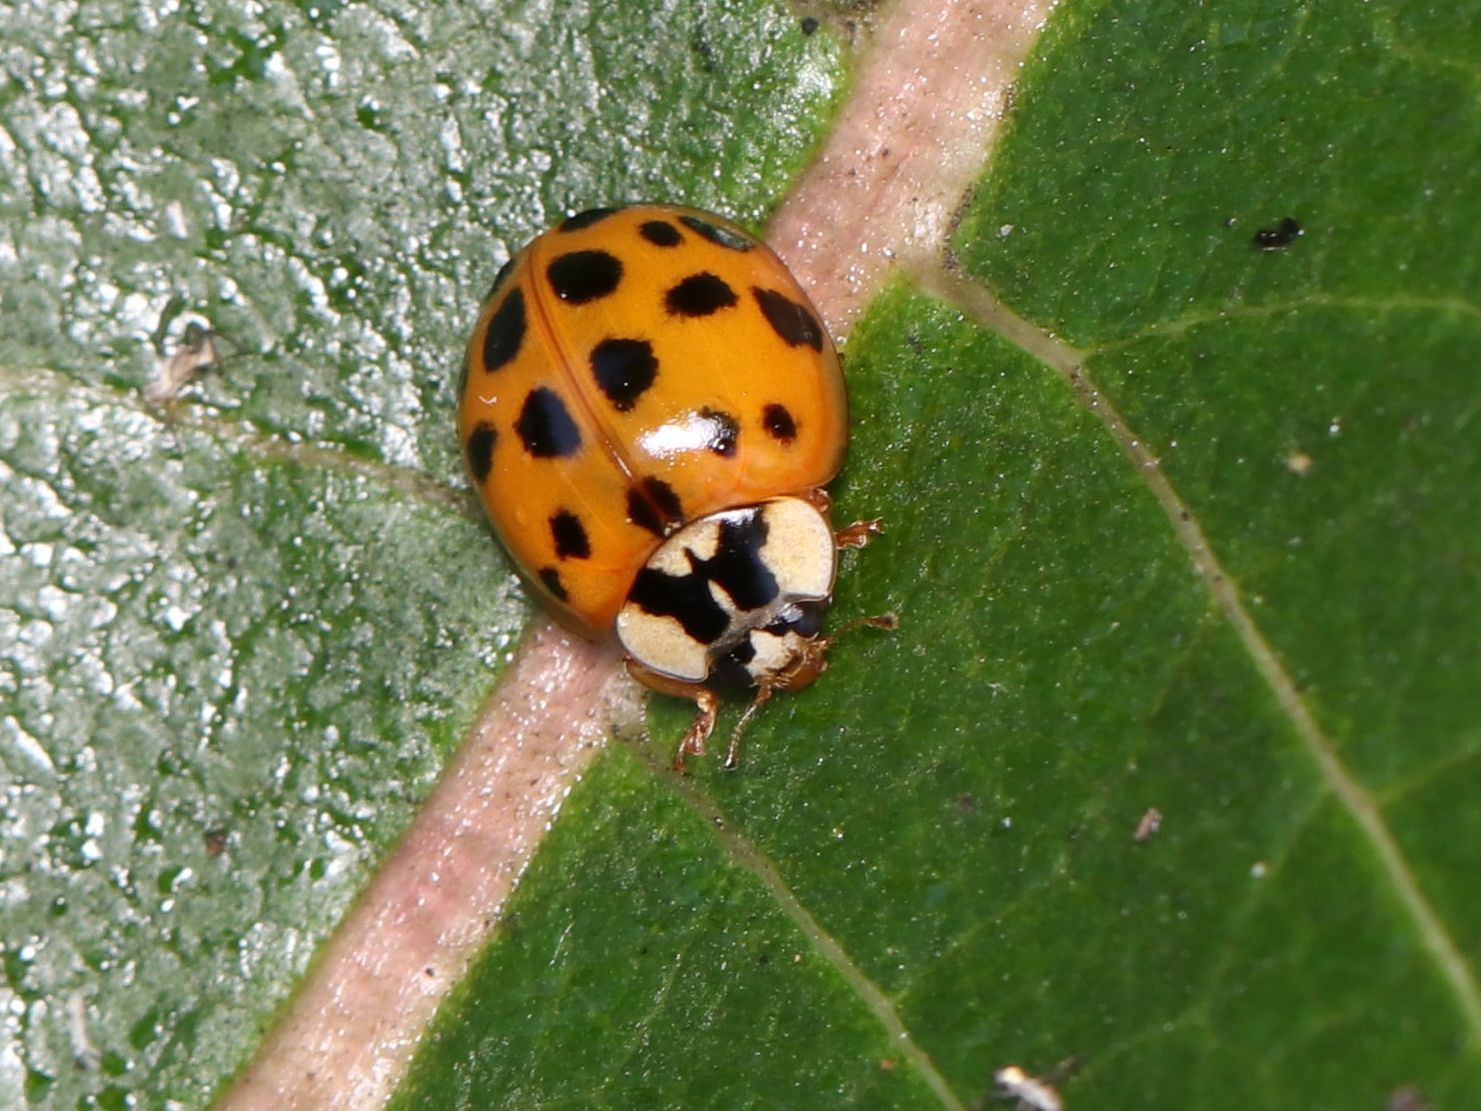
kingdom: Animalia
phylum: Arthropoda
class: Insecta
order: Coleoptera
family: Coccinellidae
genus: Harmonia
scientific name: Harmonia axyridis
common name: Harlequin ladybird
